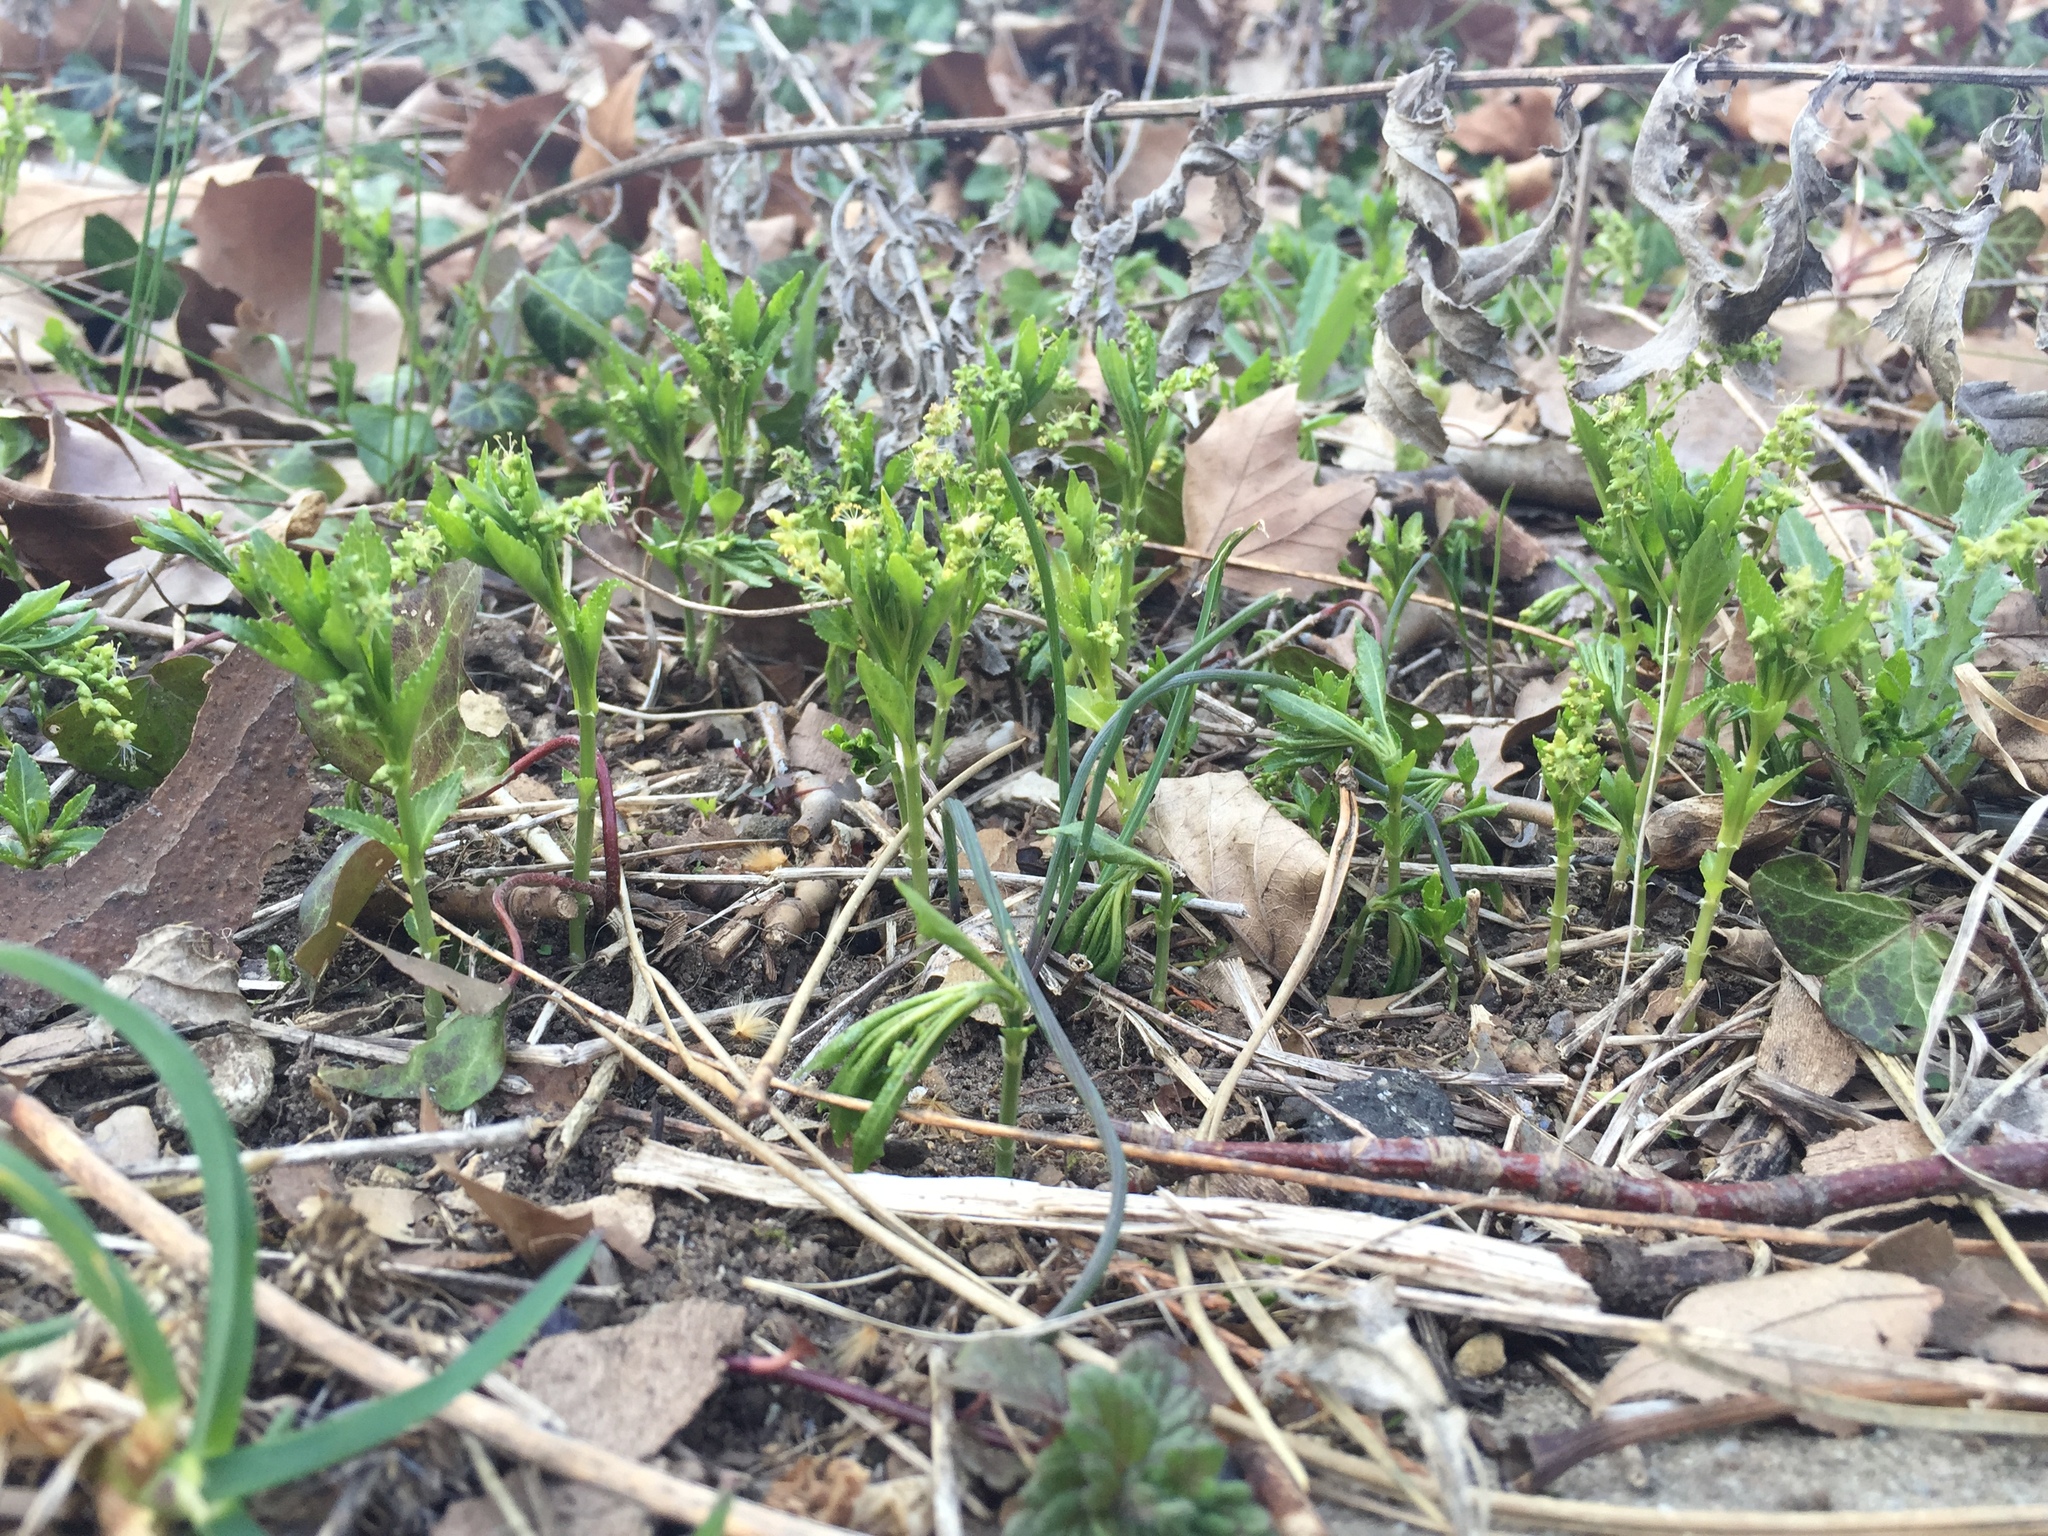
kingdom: Plantae
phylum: Tracheophyta
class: Magnoliopsida
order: Malpighiales
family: Euphorbiaceae
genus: Mercurialis
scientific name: Mercurialis perennis
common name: Dog mercury
